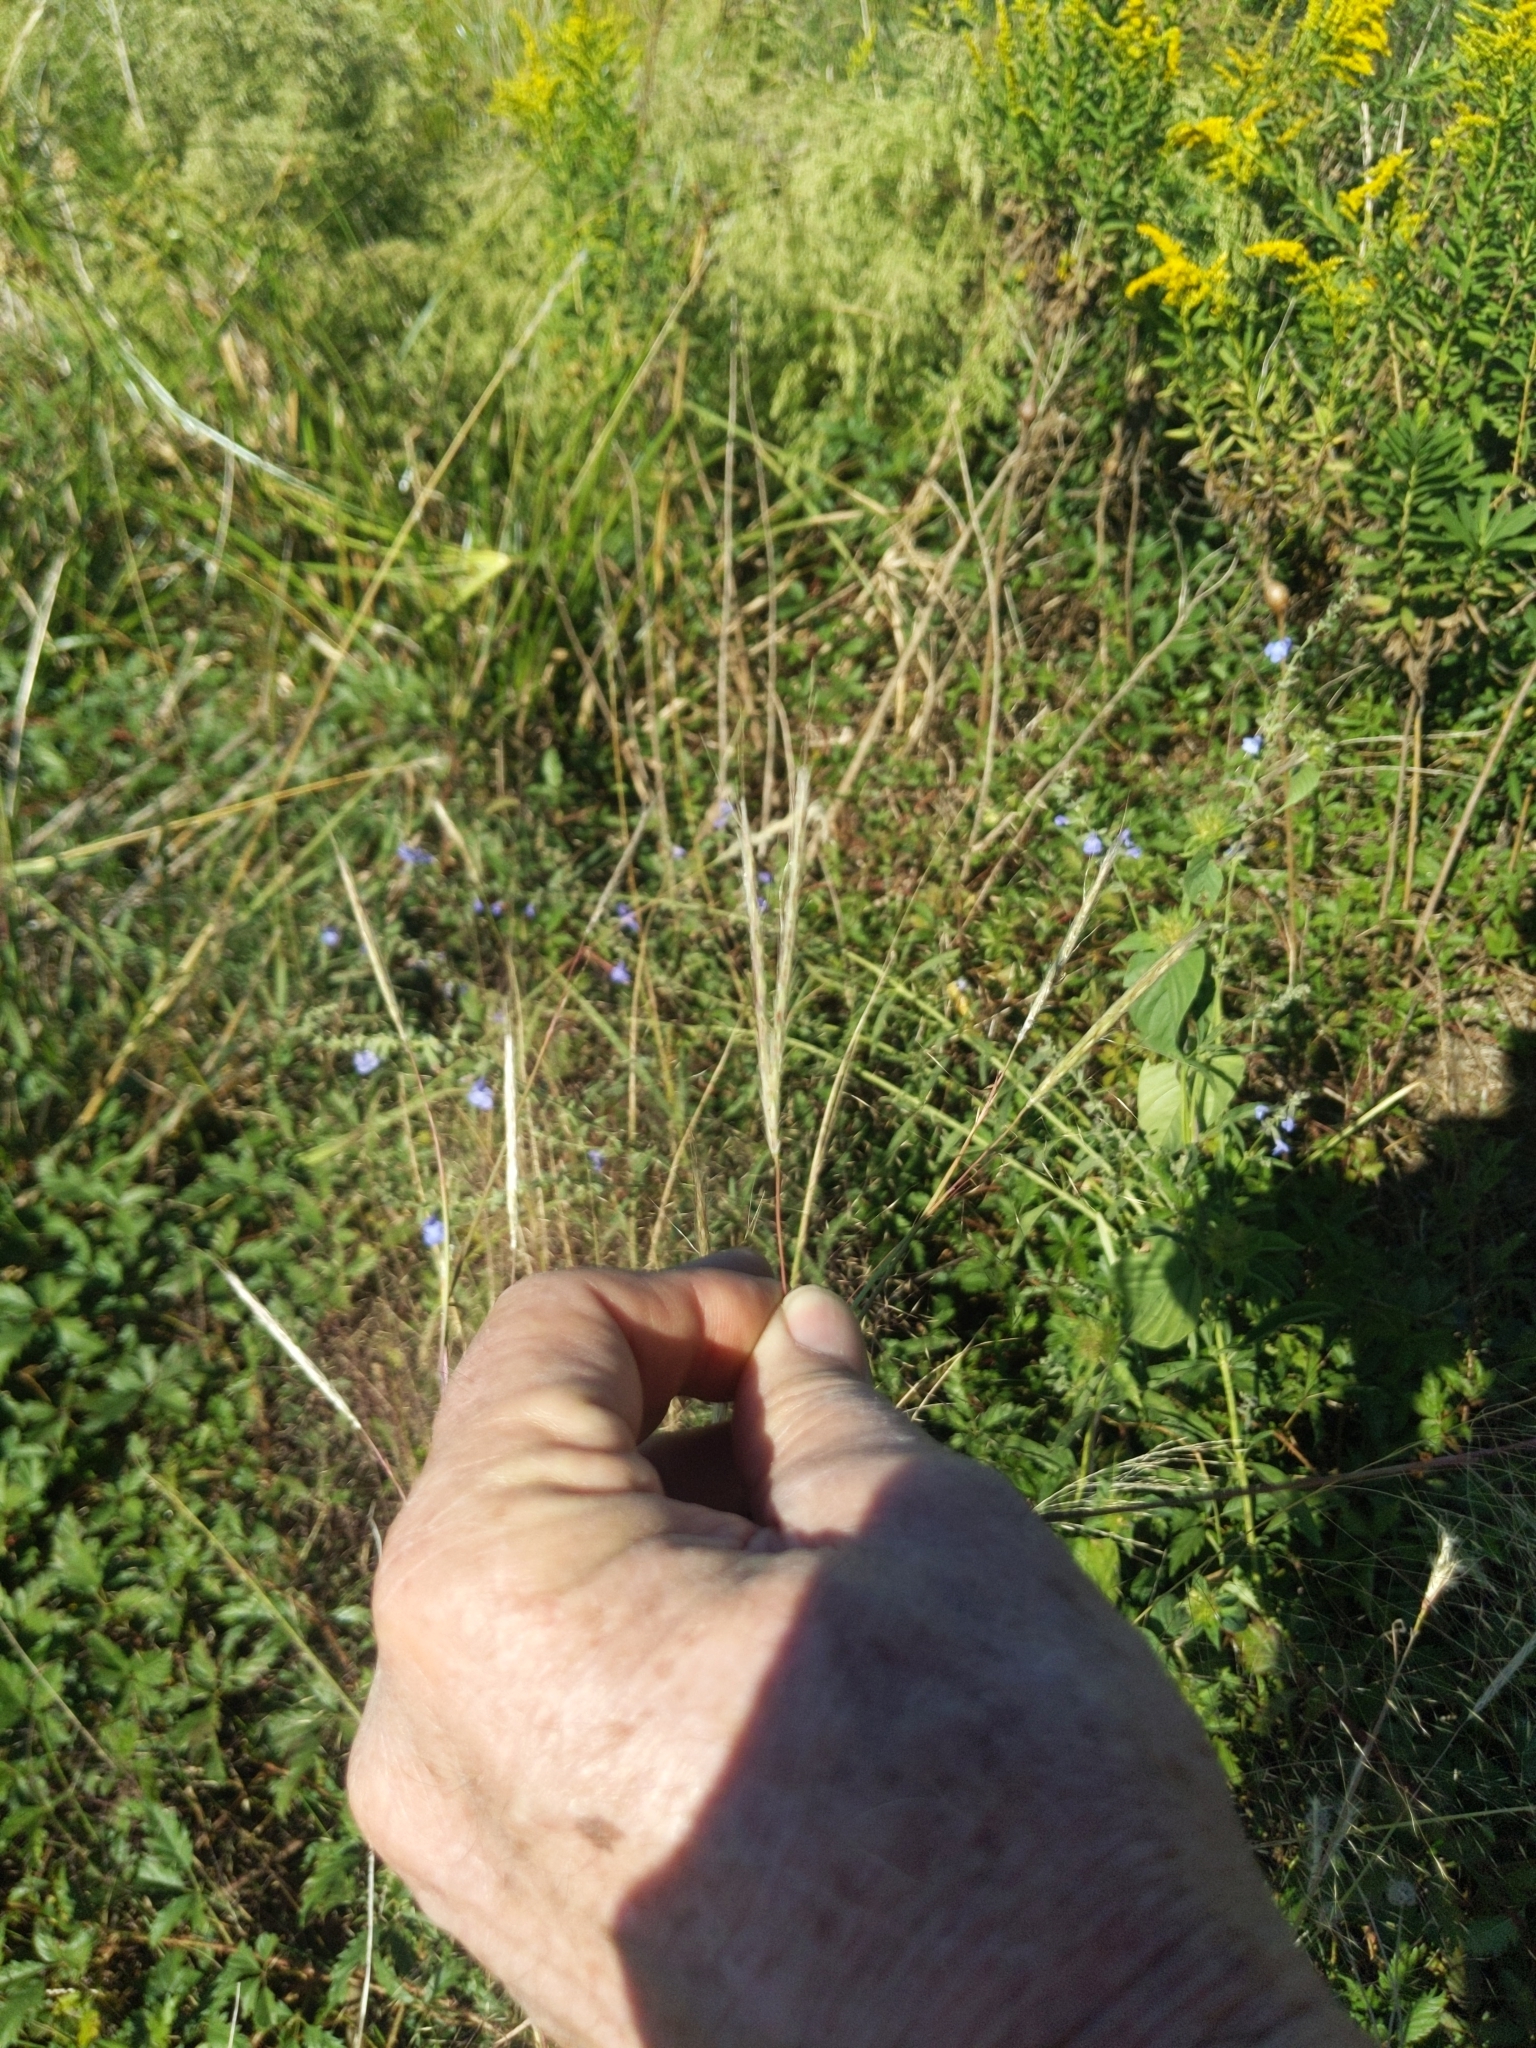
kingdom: Plantae
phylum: Tracheophyta
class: Liliopsida
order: Poales
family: Poaceae
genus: Andropogon
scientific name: Andropogon ternarius
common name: Split bluestem
